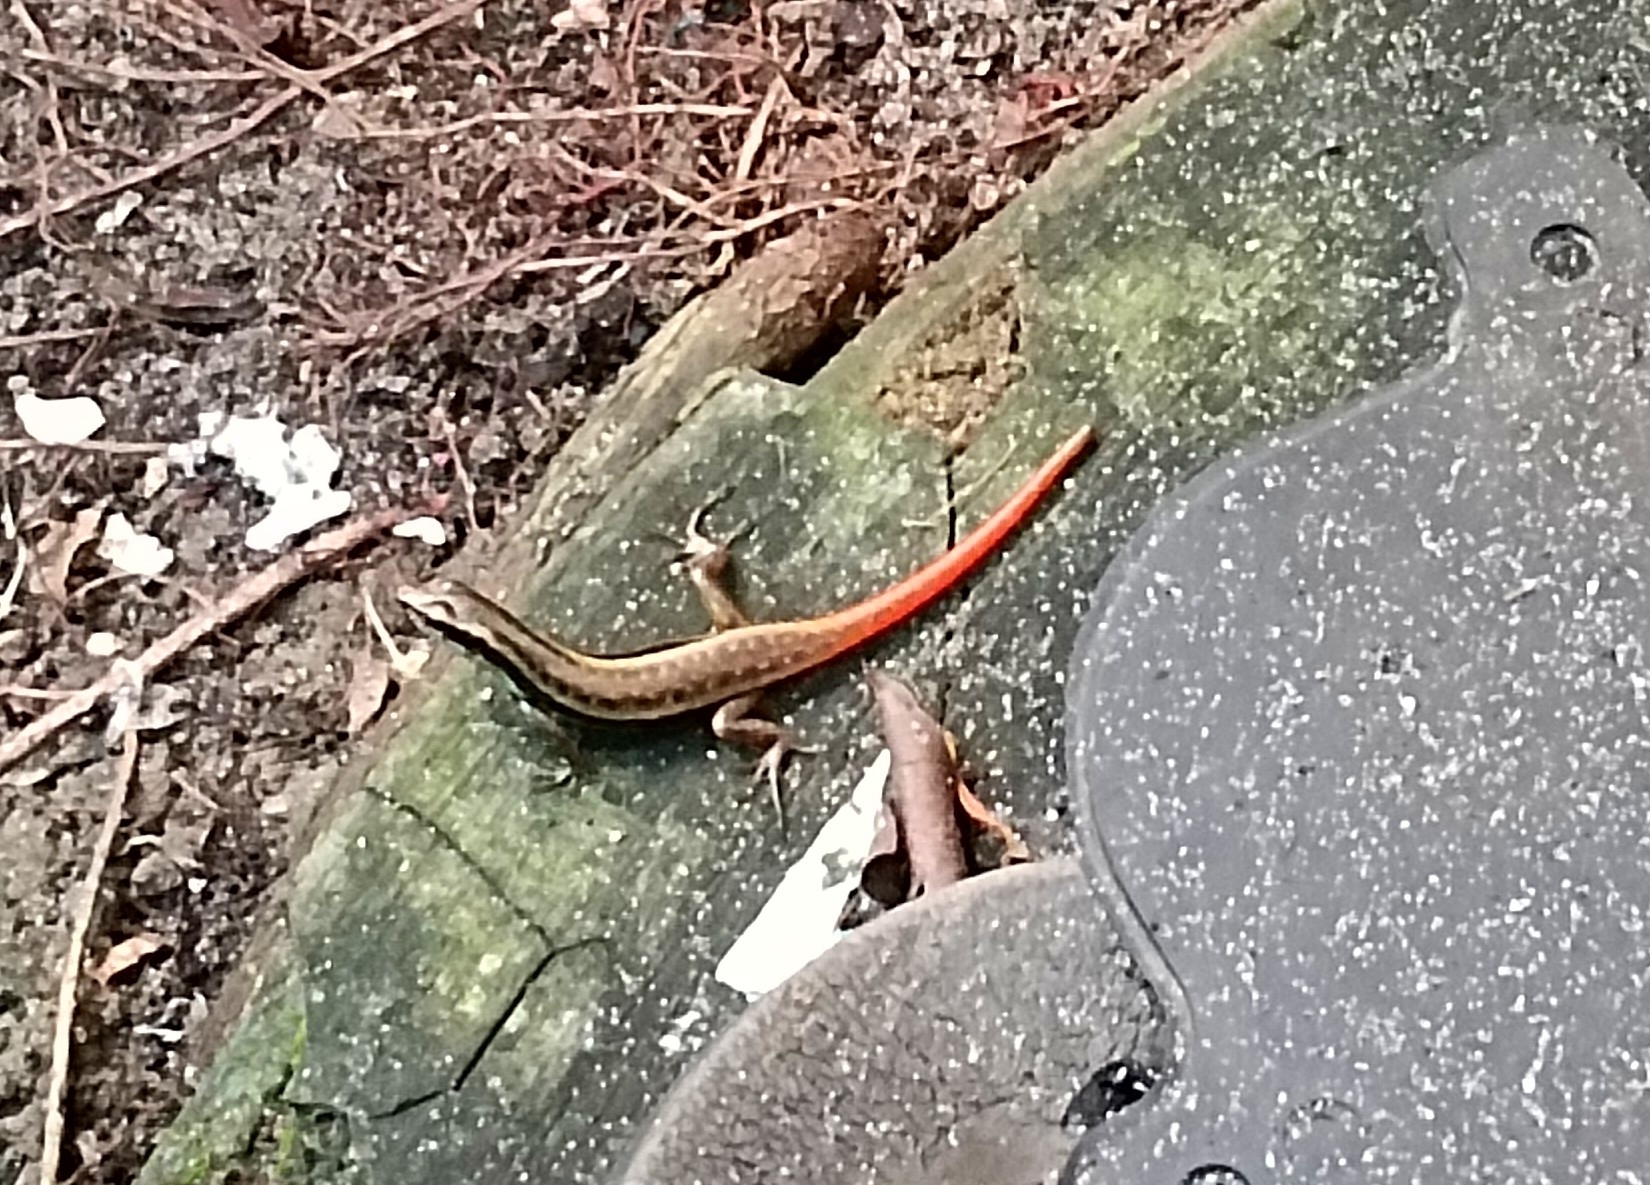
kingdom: Animalia
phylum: Chordata
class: Squamata
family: Scincidae
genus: Sphenomorphus
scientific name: Sphenomorphus dussumieri
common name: Dussumier's forest skink
